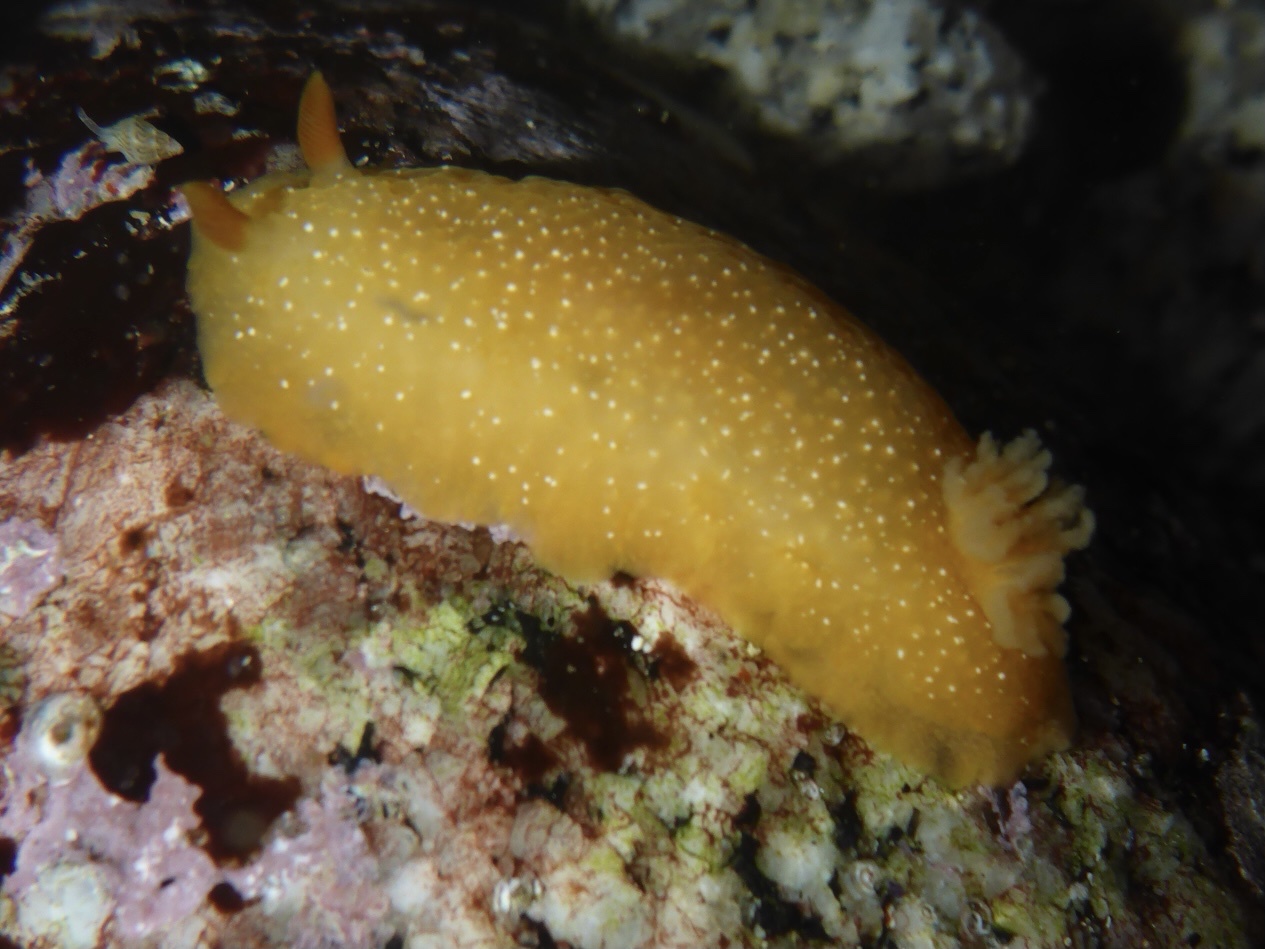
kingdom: Animalia
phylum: Mollusca
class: Gastropoda
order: Nudibranchia
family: Dendrodorididae
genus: Doriopsilla
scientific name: Doriopsilla fulva
